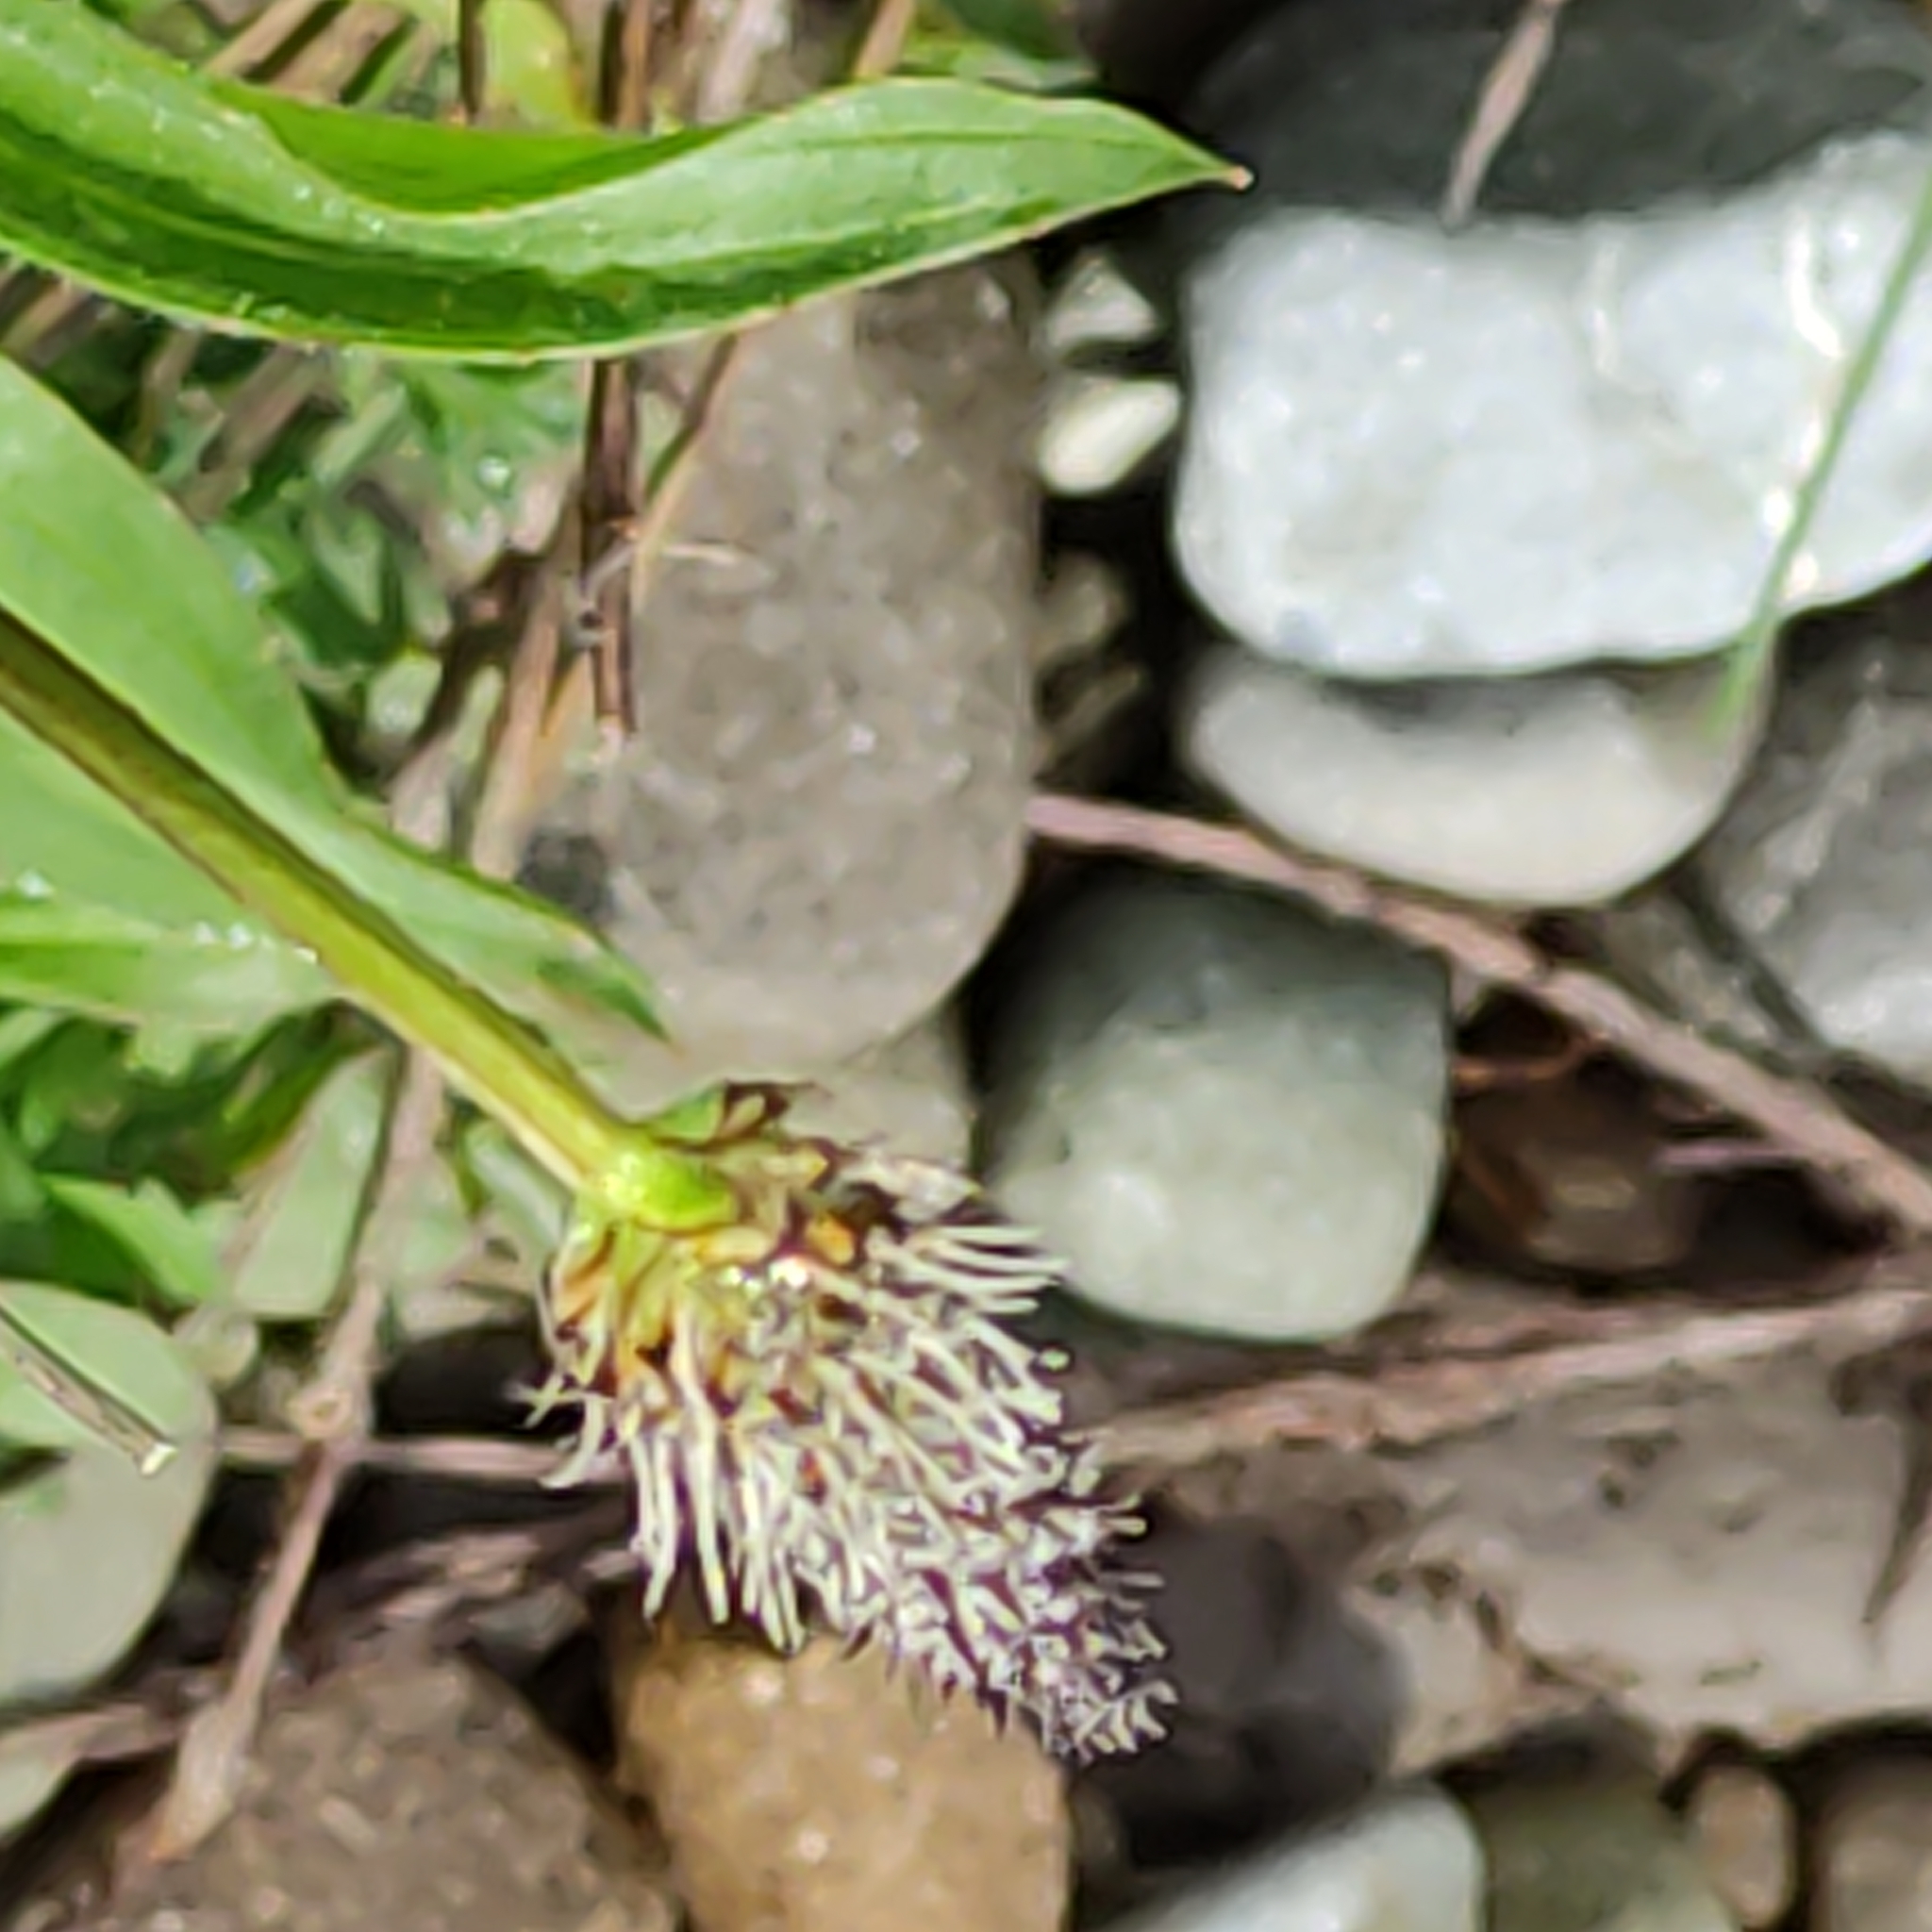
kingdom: Plantae
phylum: Tracheophyta
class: Magnoliopsida
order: Lamiales
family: Plantaginaceae
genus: Plantago
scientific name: Plantago lanceolata
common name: Ribwort plantain
